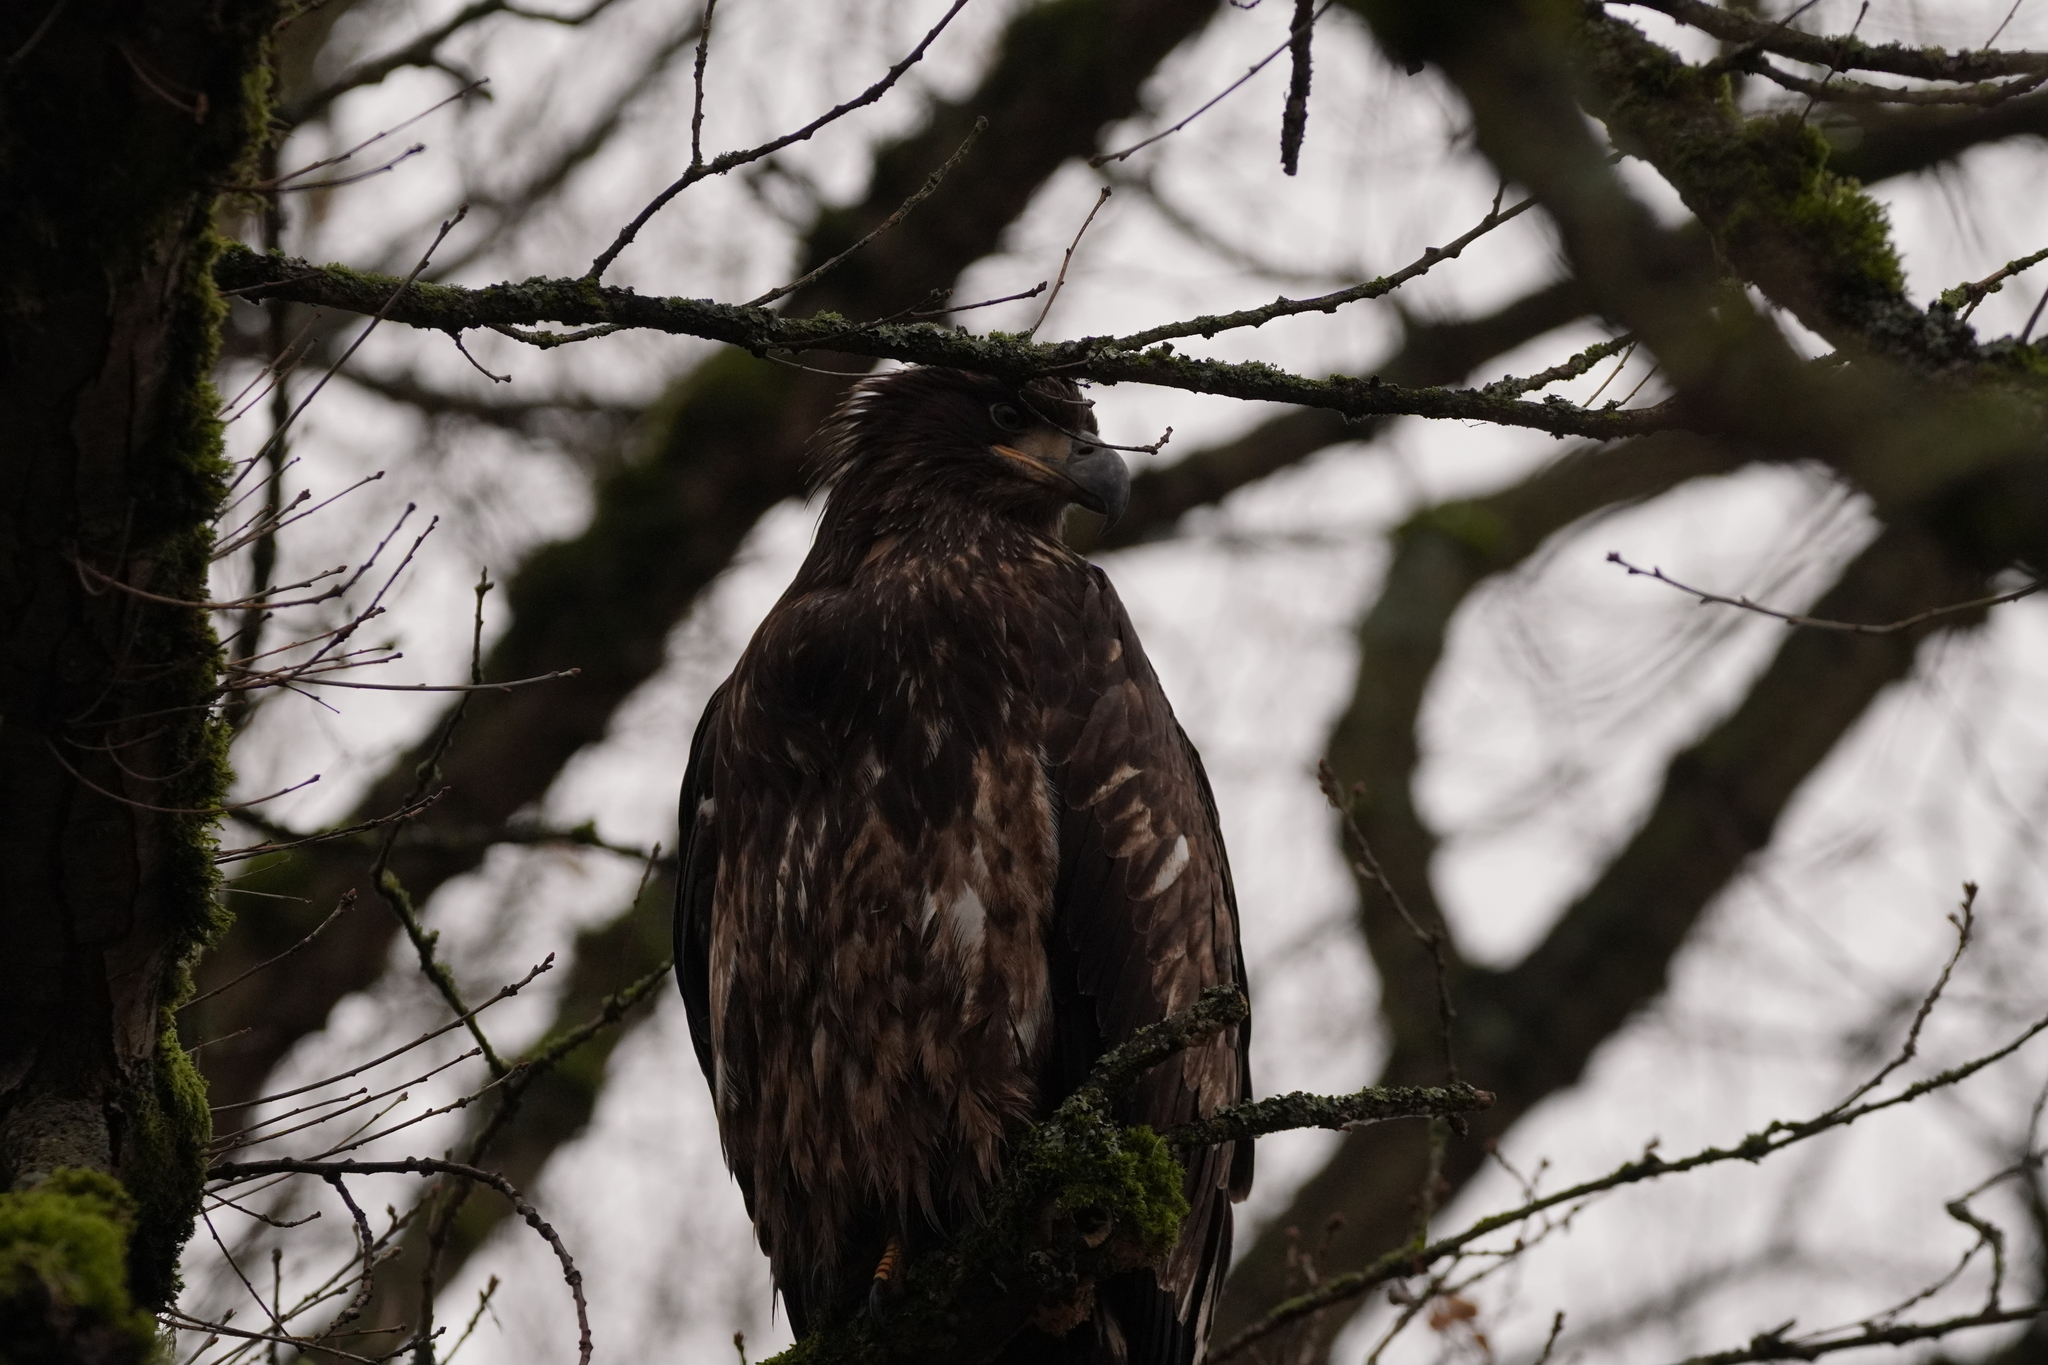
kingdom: Animalia
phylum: Chordata
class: Aves
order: Accipitriformes
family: Accipitridae
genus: Haliaeetus
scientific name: Haliaeetus leucocephalus
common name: Bald eagle
